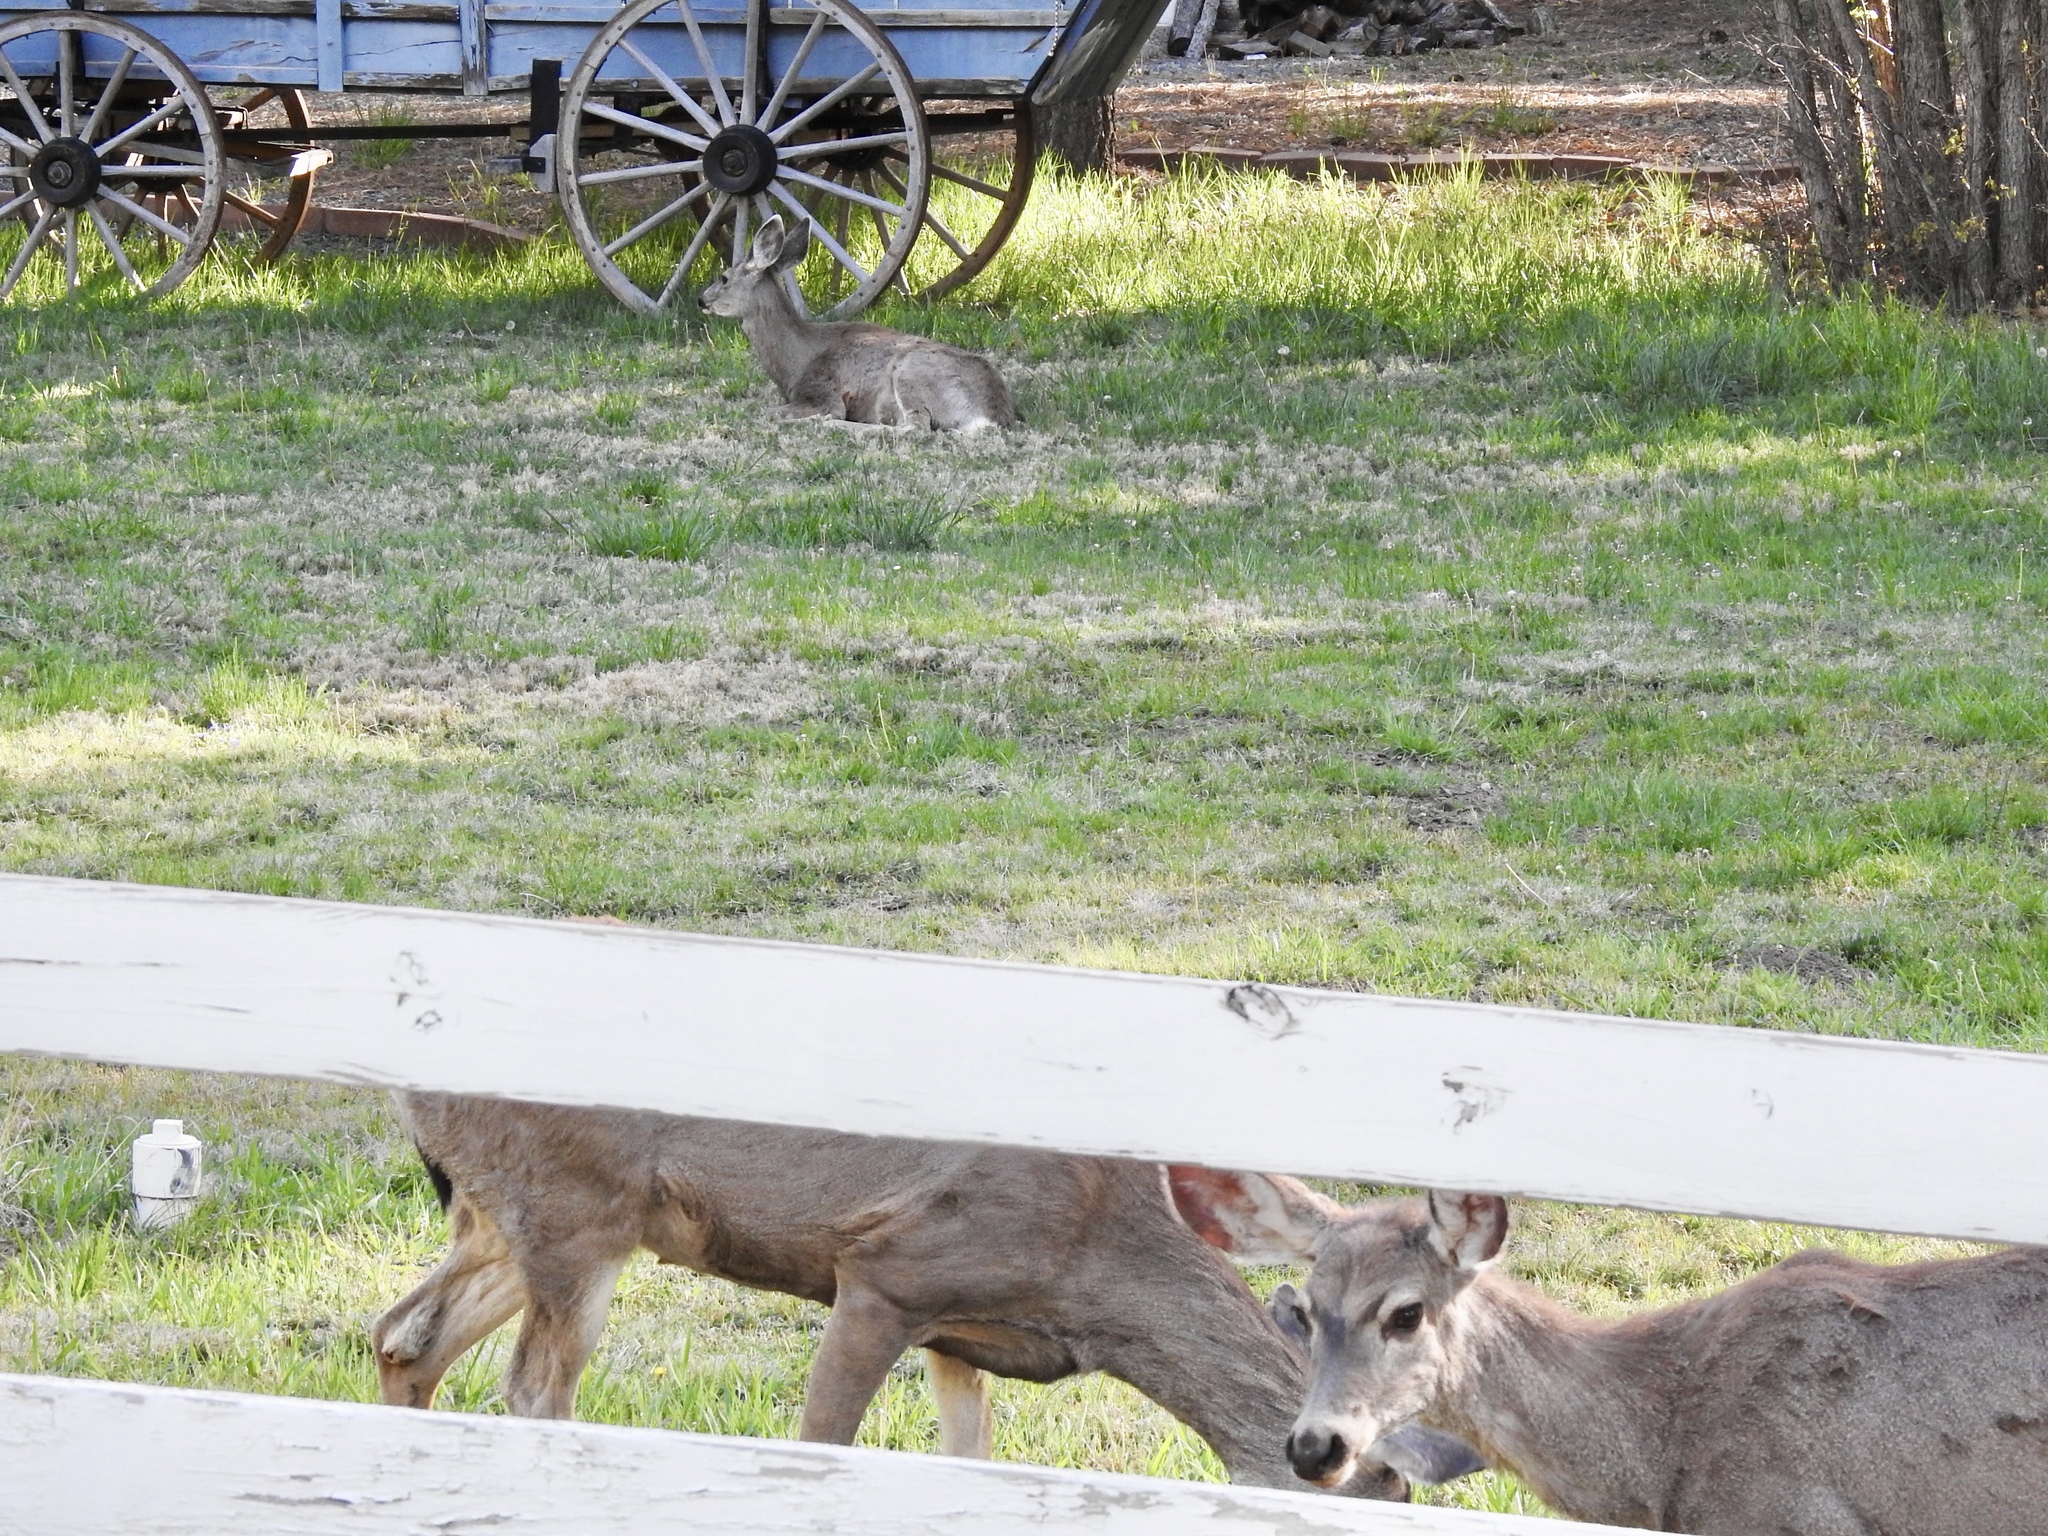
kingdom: Animalia
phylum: Chordata
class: Mammalia
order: Artiodactyla
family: Cervidae
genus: Odocoileus
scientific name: Odocoileus hemionus
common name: Mule deer
